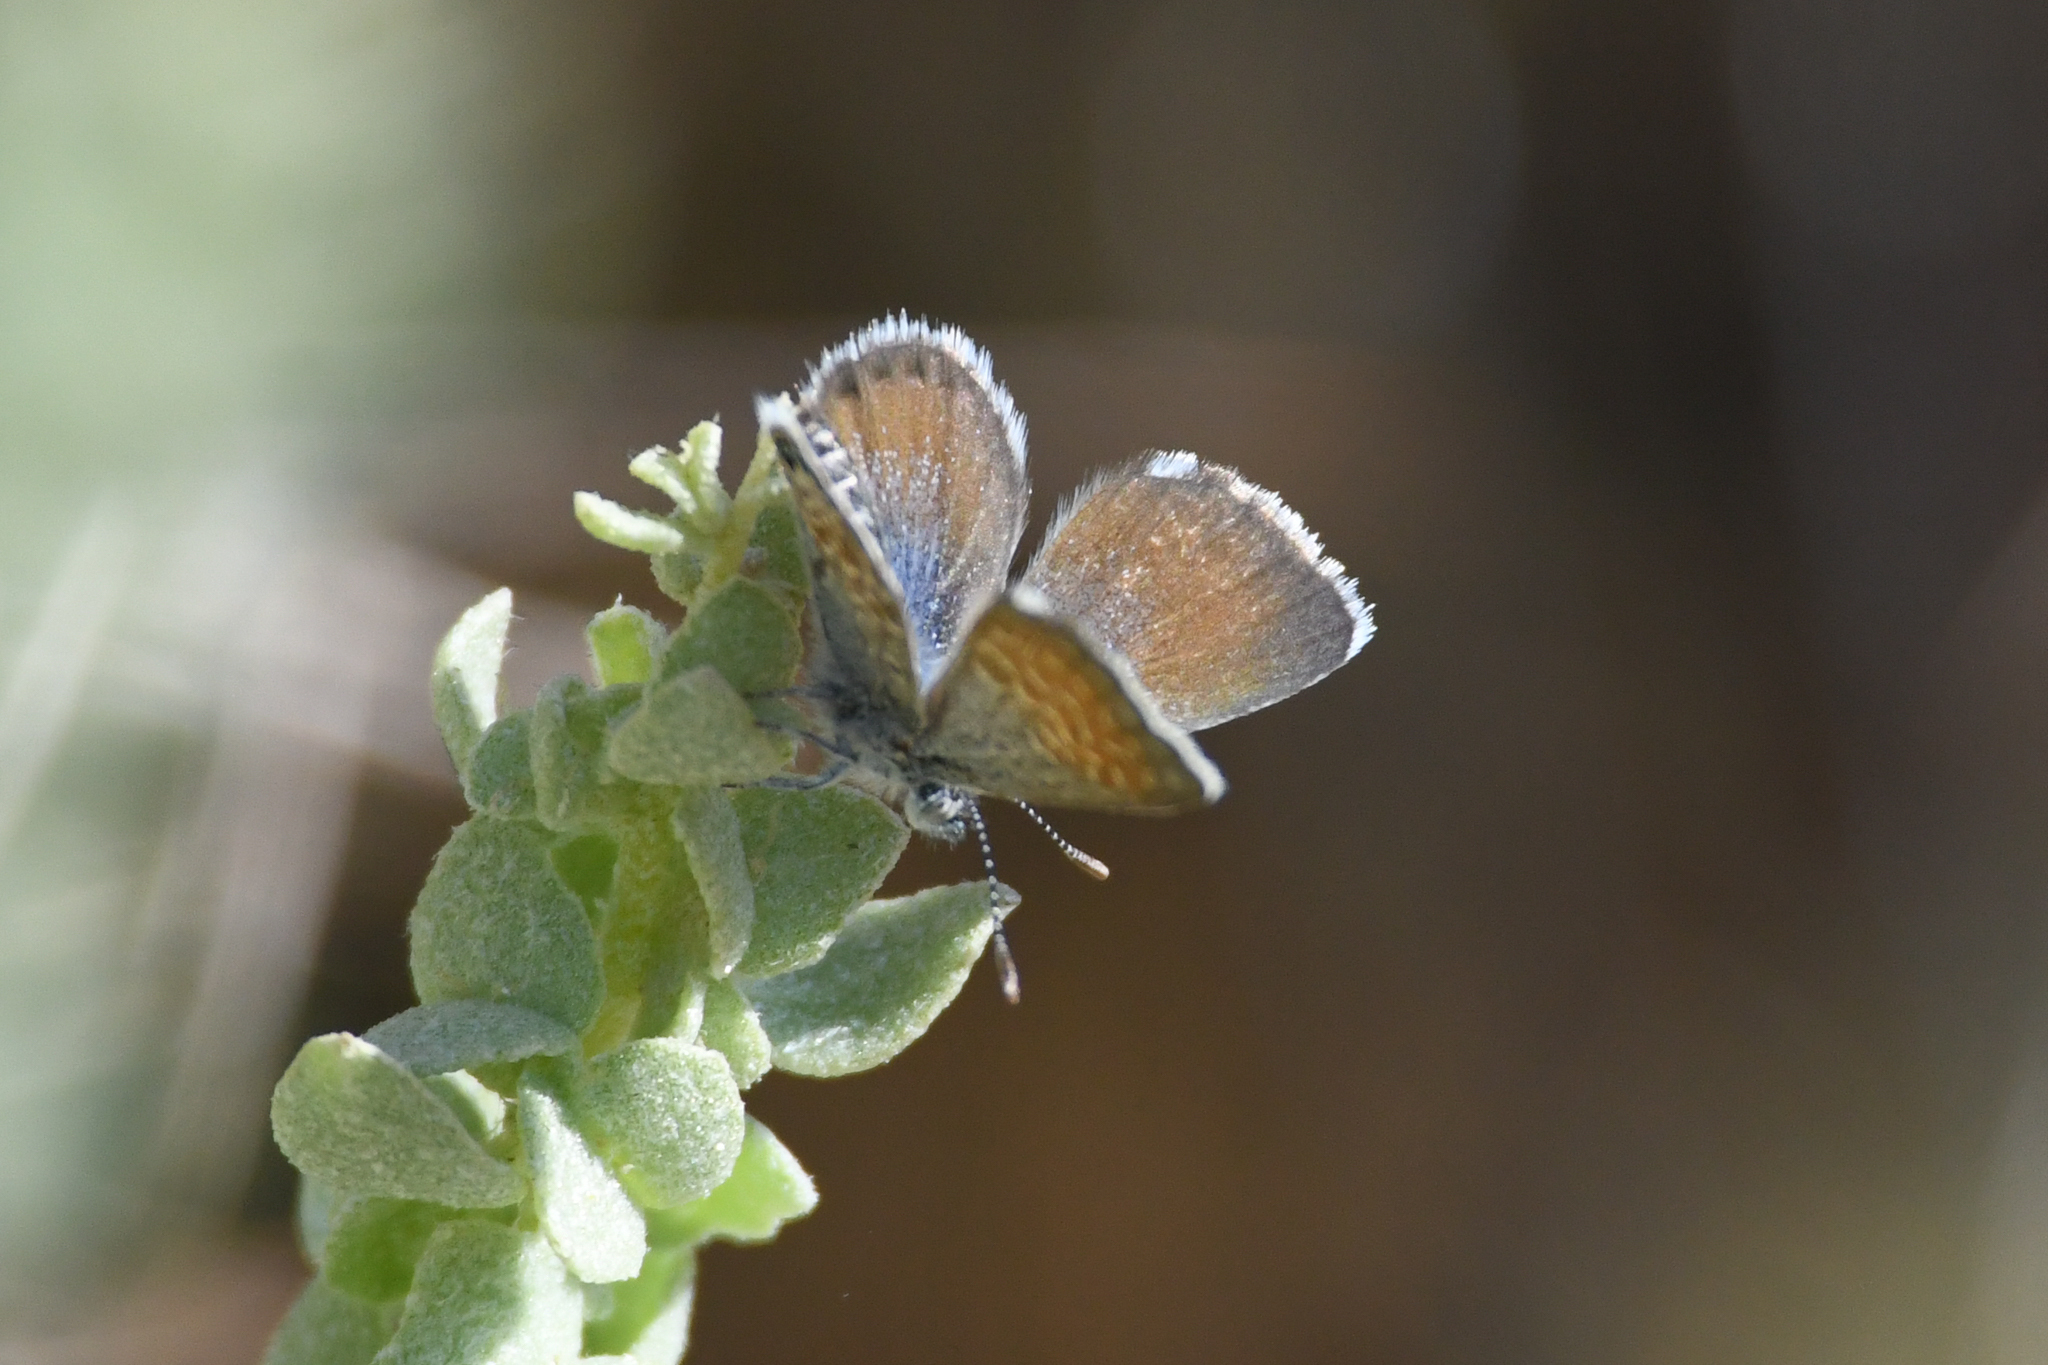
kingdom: Animalia
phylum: Arthropoda
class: Insecta
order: Lepidoptera
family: Lycaenidae
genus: Brephidium
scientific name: Brephidium exilis
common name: Pygmy blue
